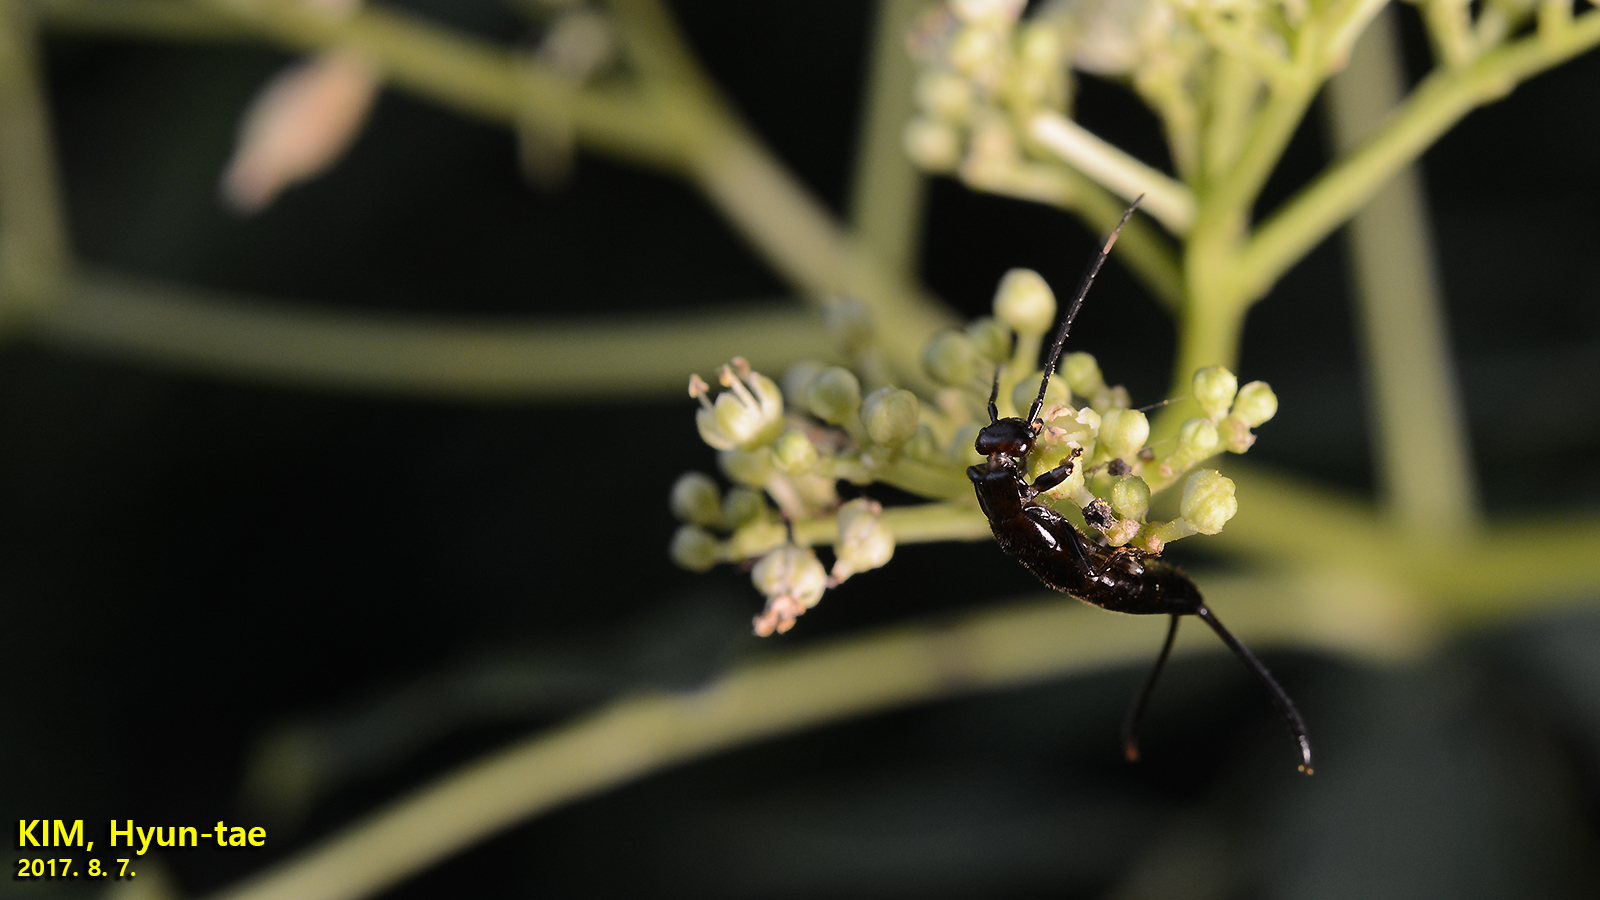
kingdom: Animalia
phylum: Arthropoda
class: Insecta
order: Dermaptera
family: Forficulidae
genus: Timomenus
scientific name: Timomenus komarovi
